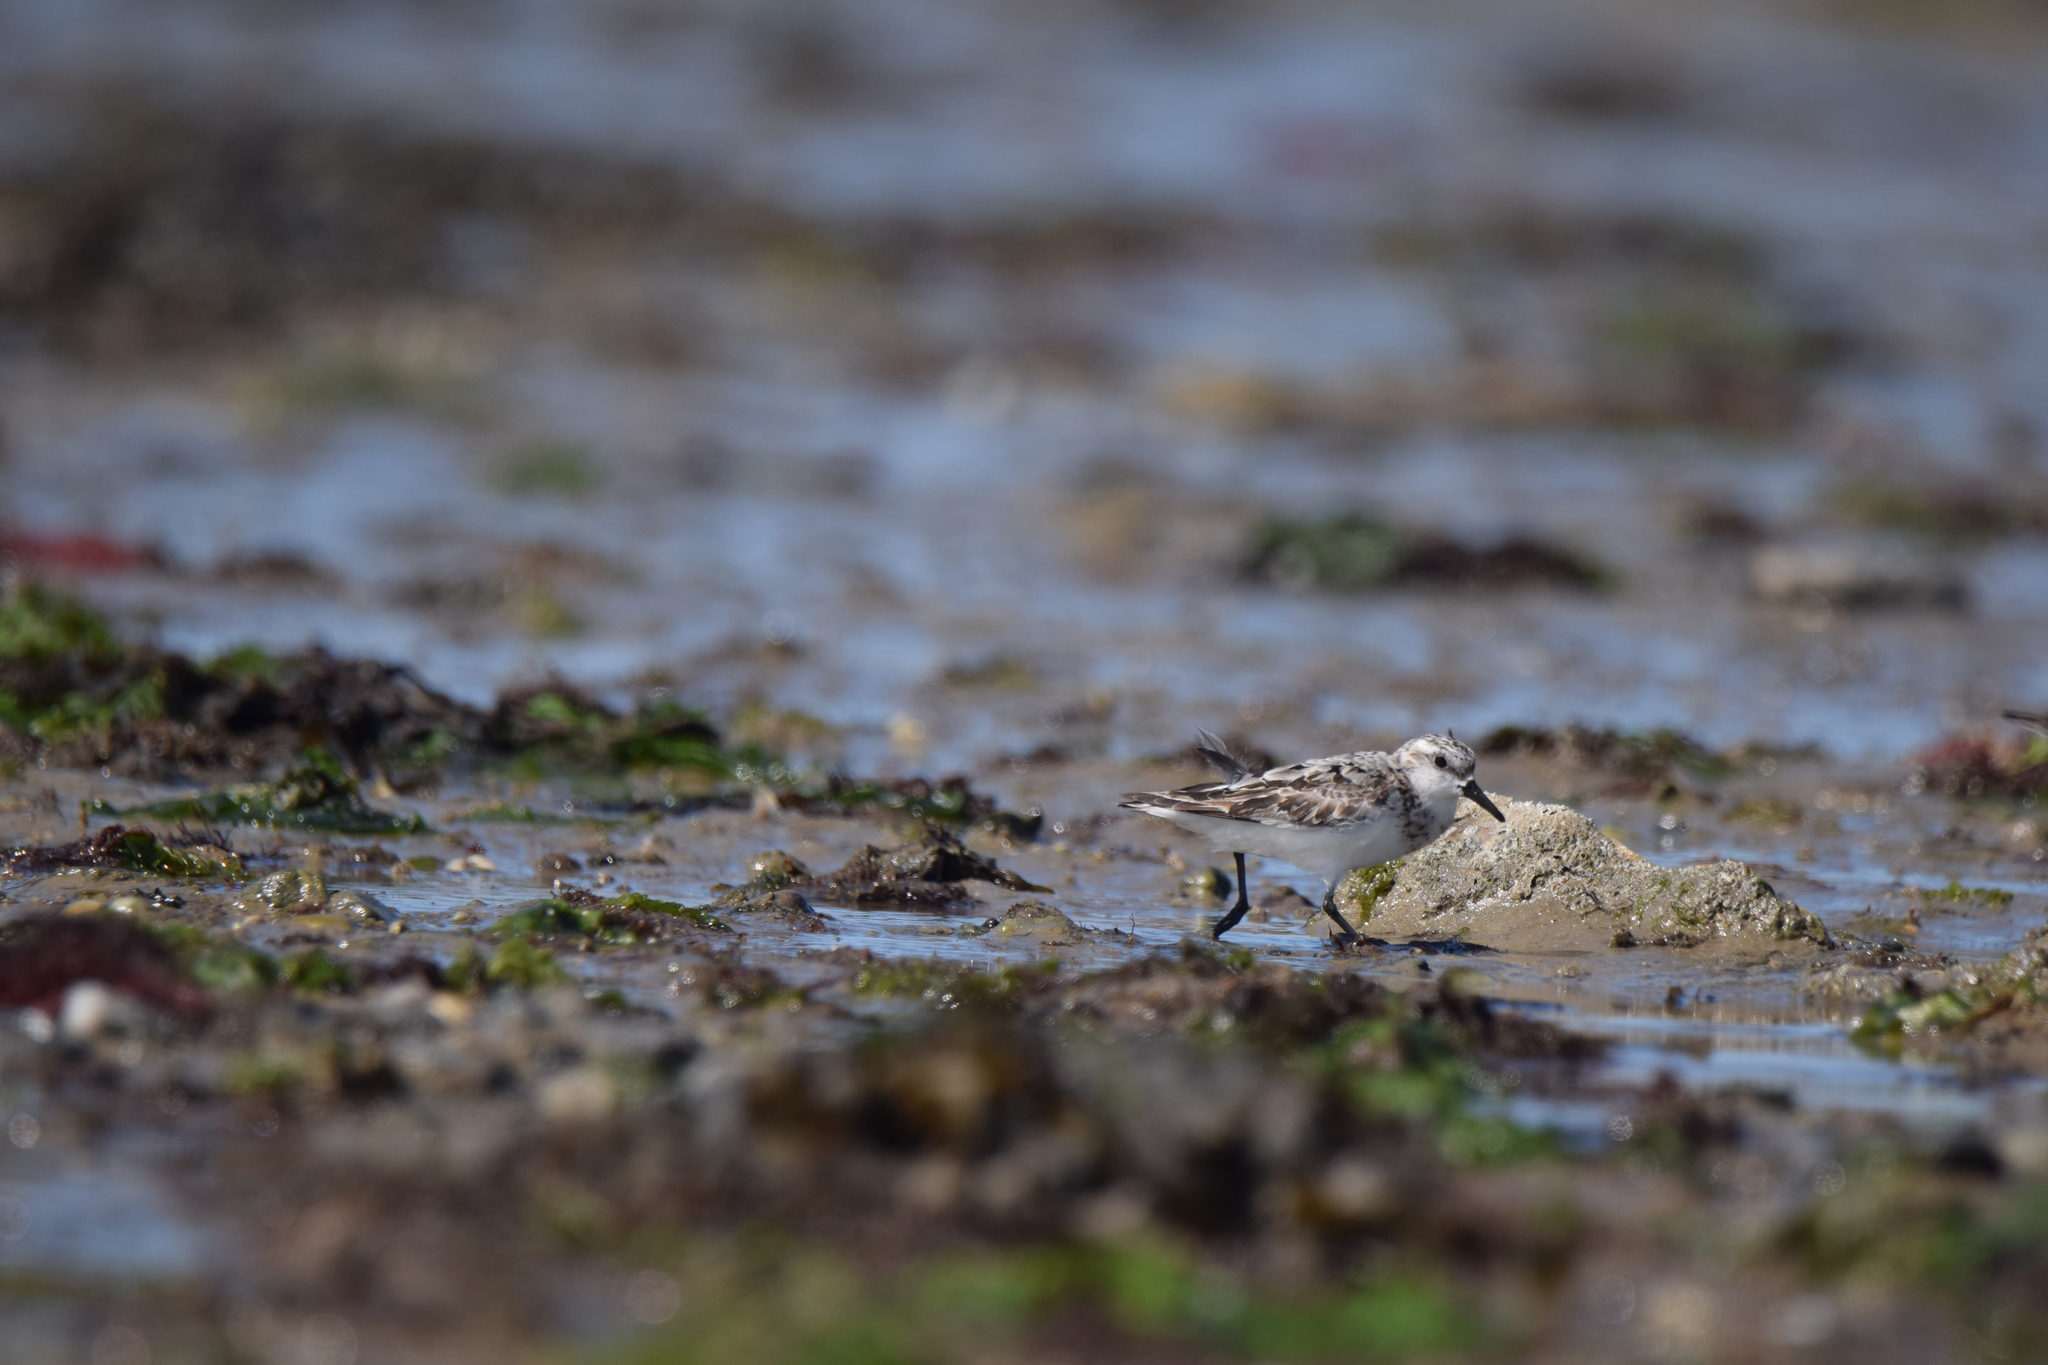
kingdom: Animalia
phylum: Chordata
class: Aves
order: Charadriiformes
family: Scolopacidae
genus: Calidris
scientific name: Calidris alba
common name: Sanderling
